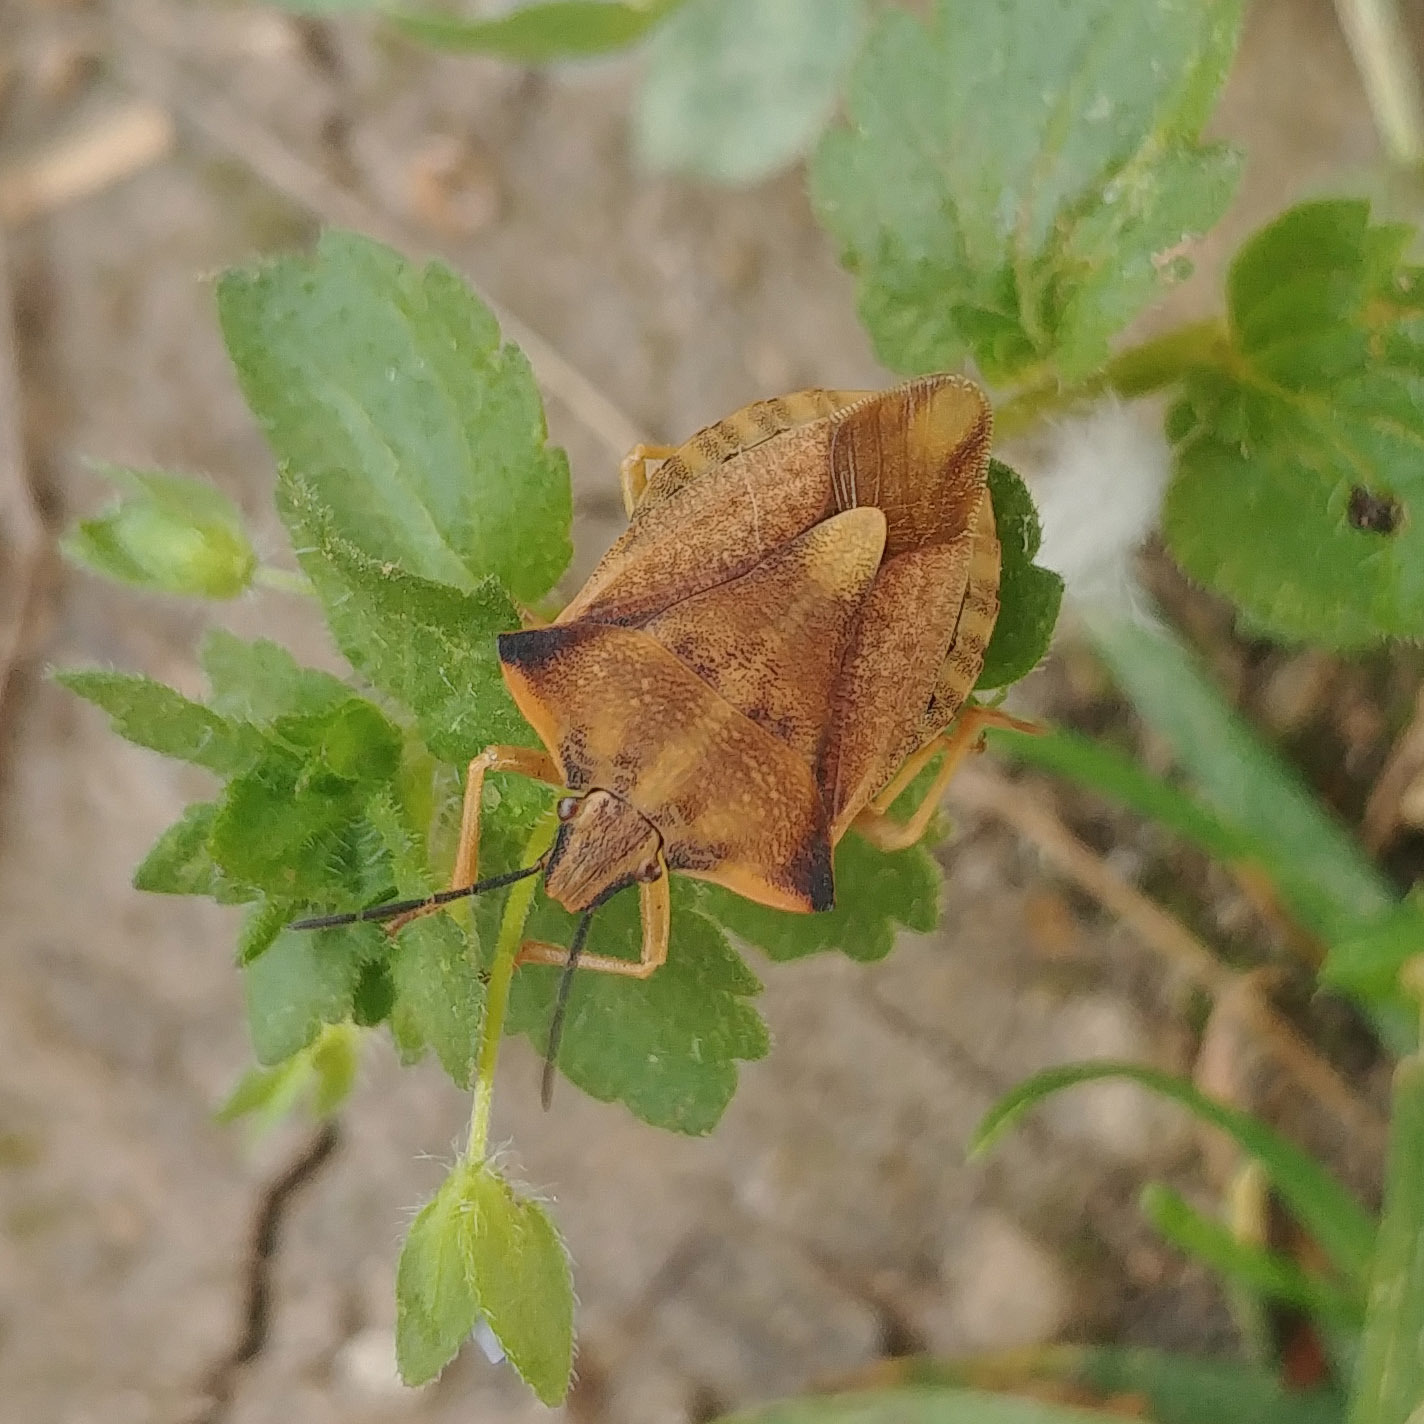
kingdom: Animalia
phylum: Arthropoda
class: Insecta
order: Hemiptera
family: Pentatomidae
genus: Carpocoris
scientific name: Carpocoris fuscispinus
